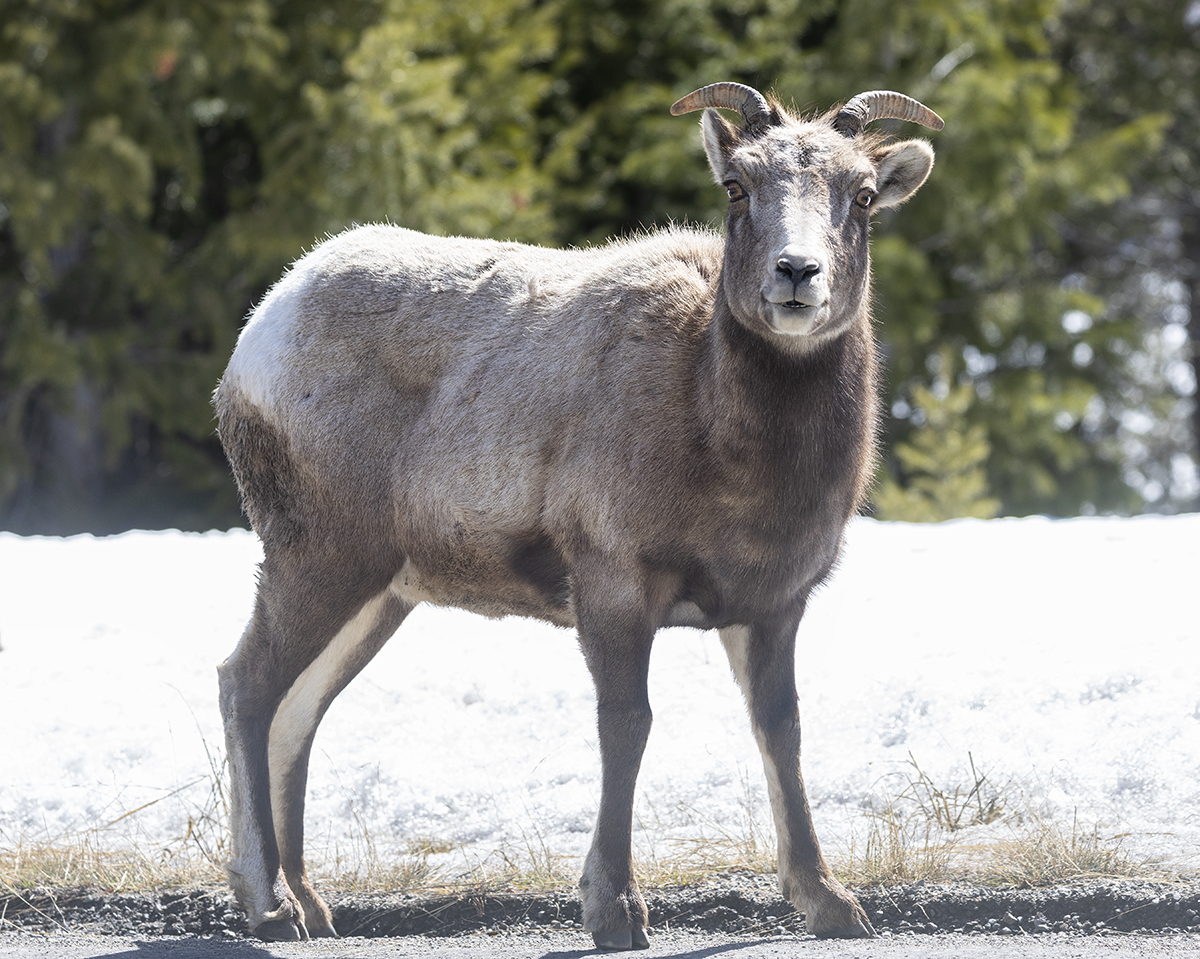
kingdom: Animalia
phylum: Chordata
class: Mammalia
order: Artiodactyla
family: Bovidae
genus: Ovis
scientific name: Ovis canadensis
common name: Bighorn sheep
